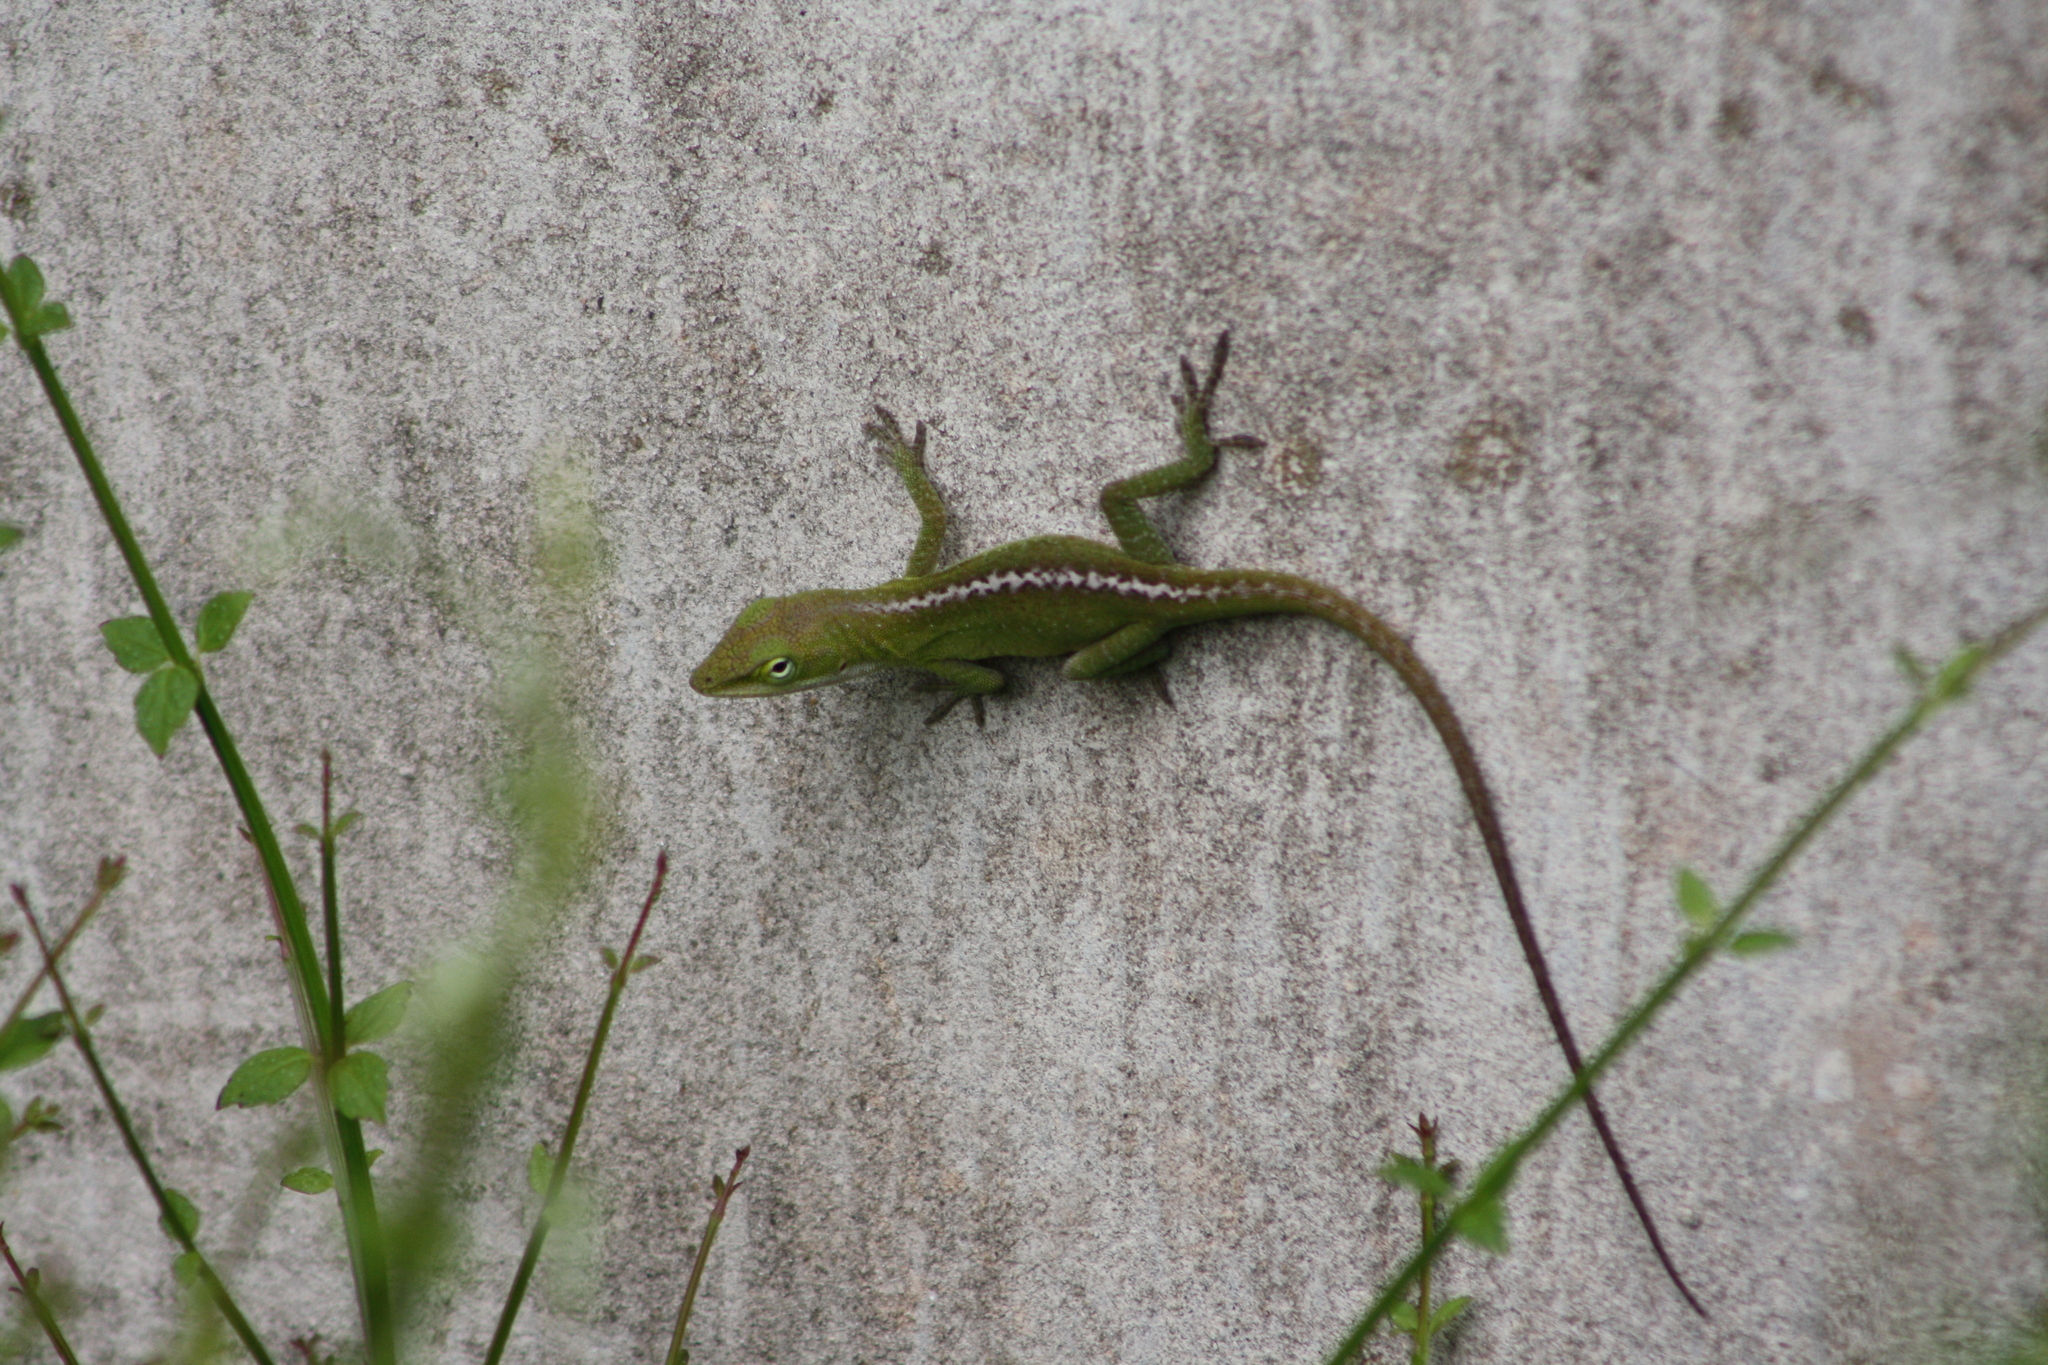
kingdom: Animalia
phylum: Chordata
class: Squamata
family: Dactyloidae
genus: Anolis
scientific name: Anolis carolinensis
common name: Green anole
